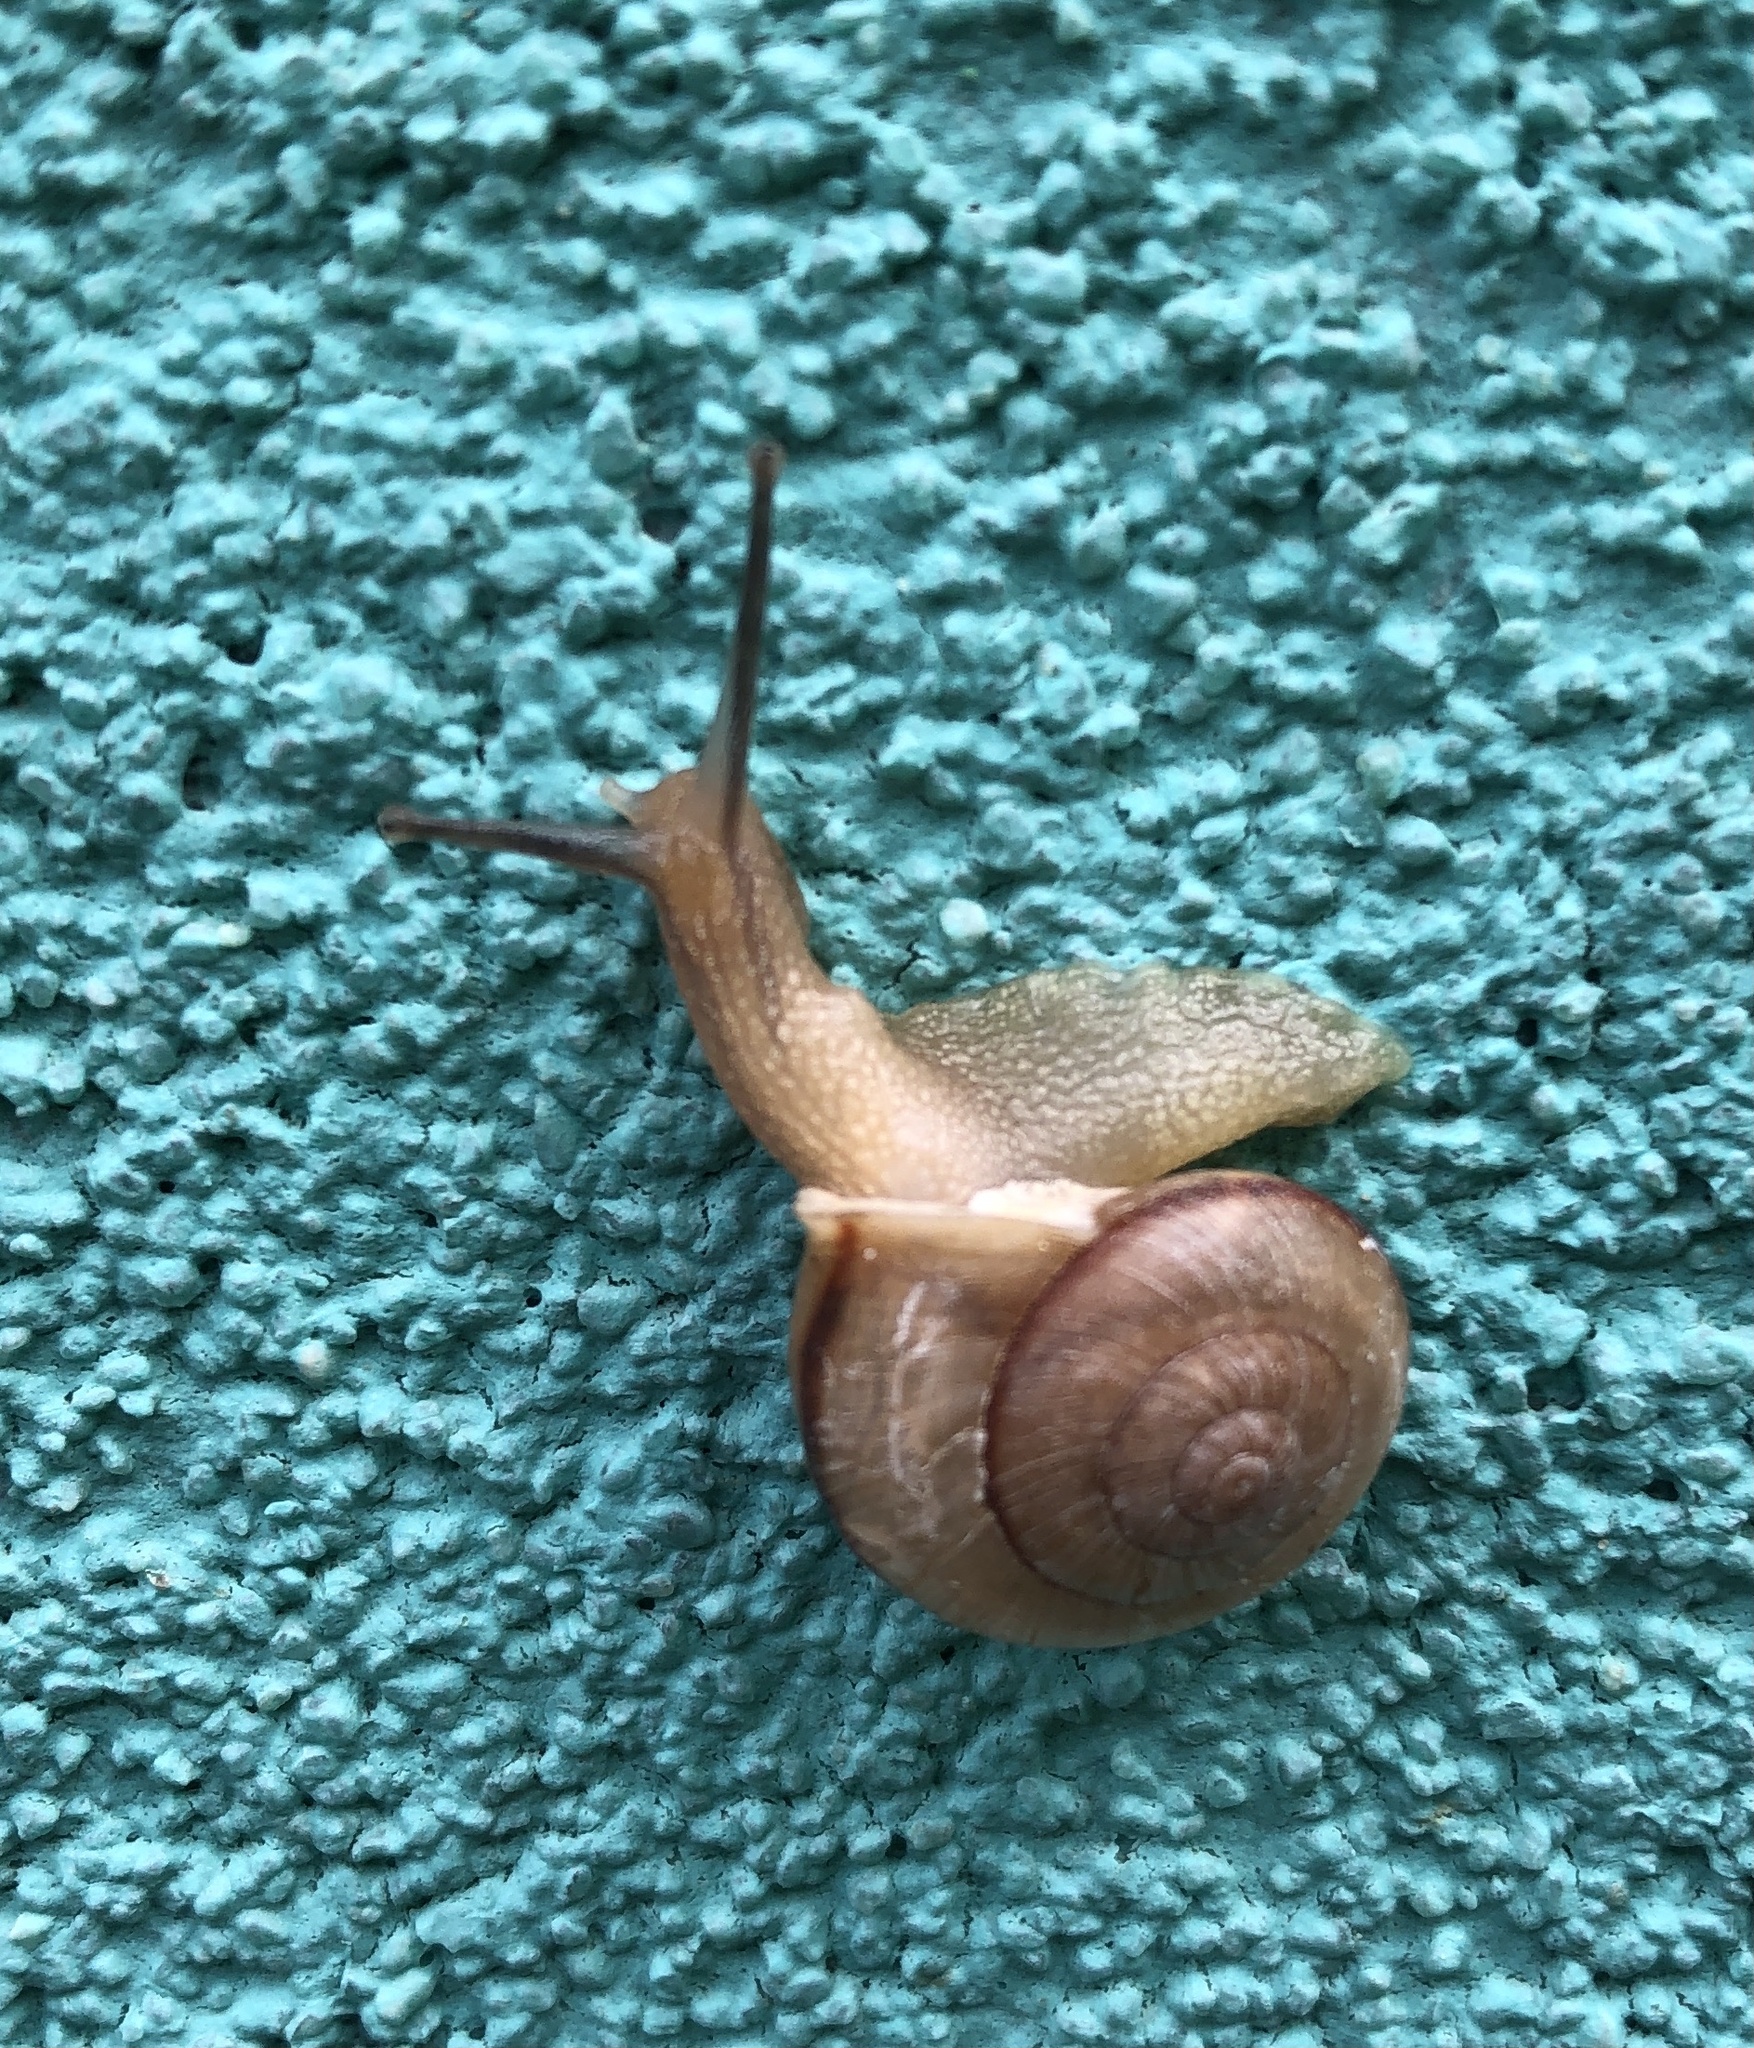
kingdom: Animalia
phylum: Mollusca
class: Gastropoda
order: Stylommatophora
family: Camaenidae
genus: Bradybaena
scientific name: Bradybaena similaris
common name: Asian trampsnail
